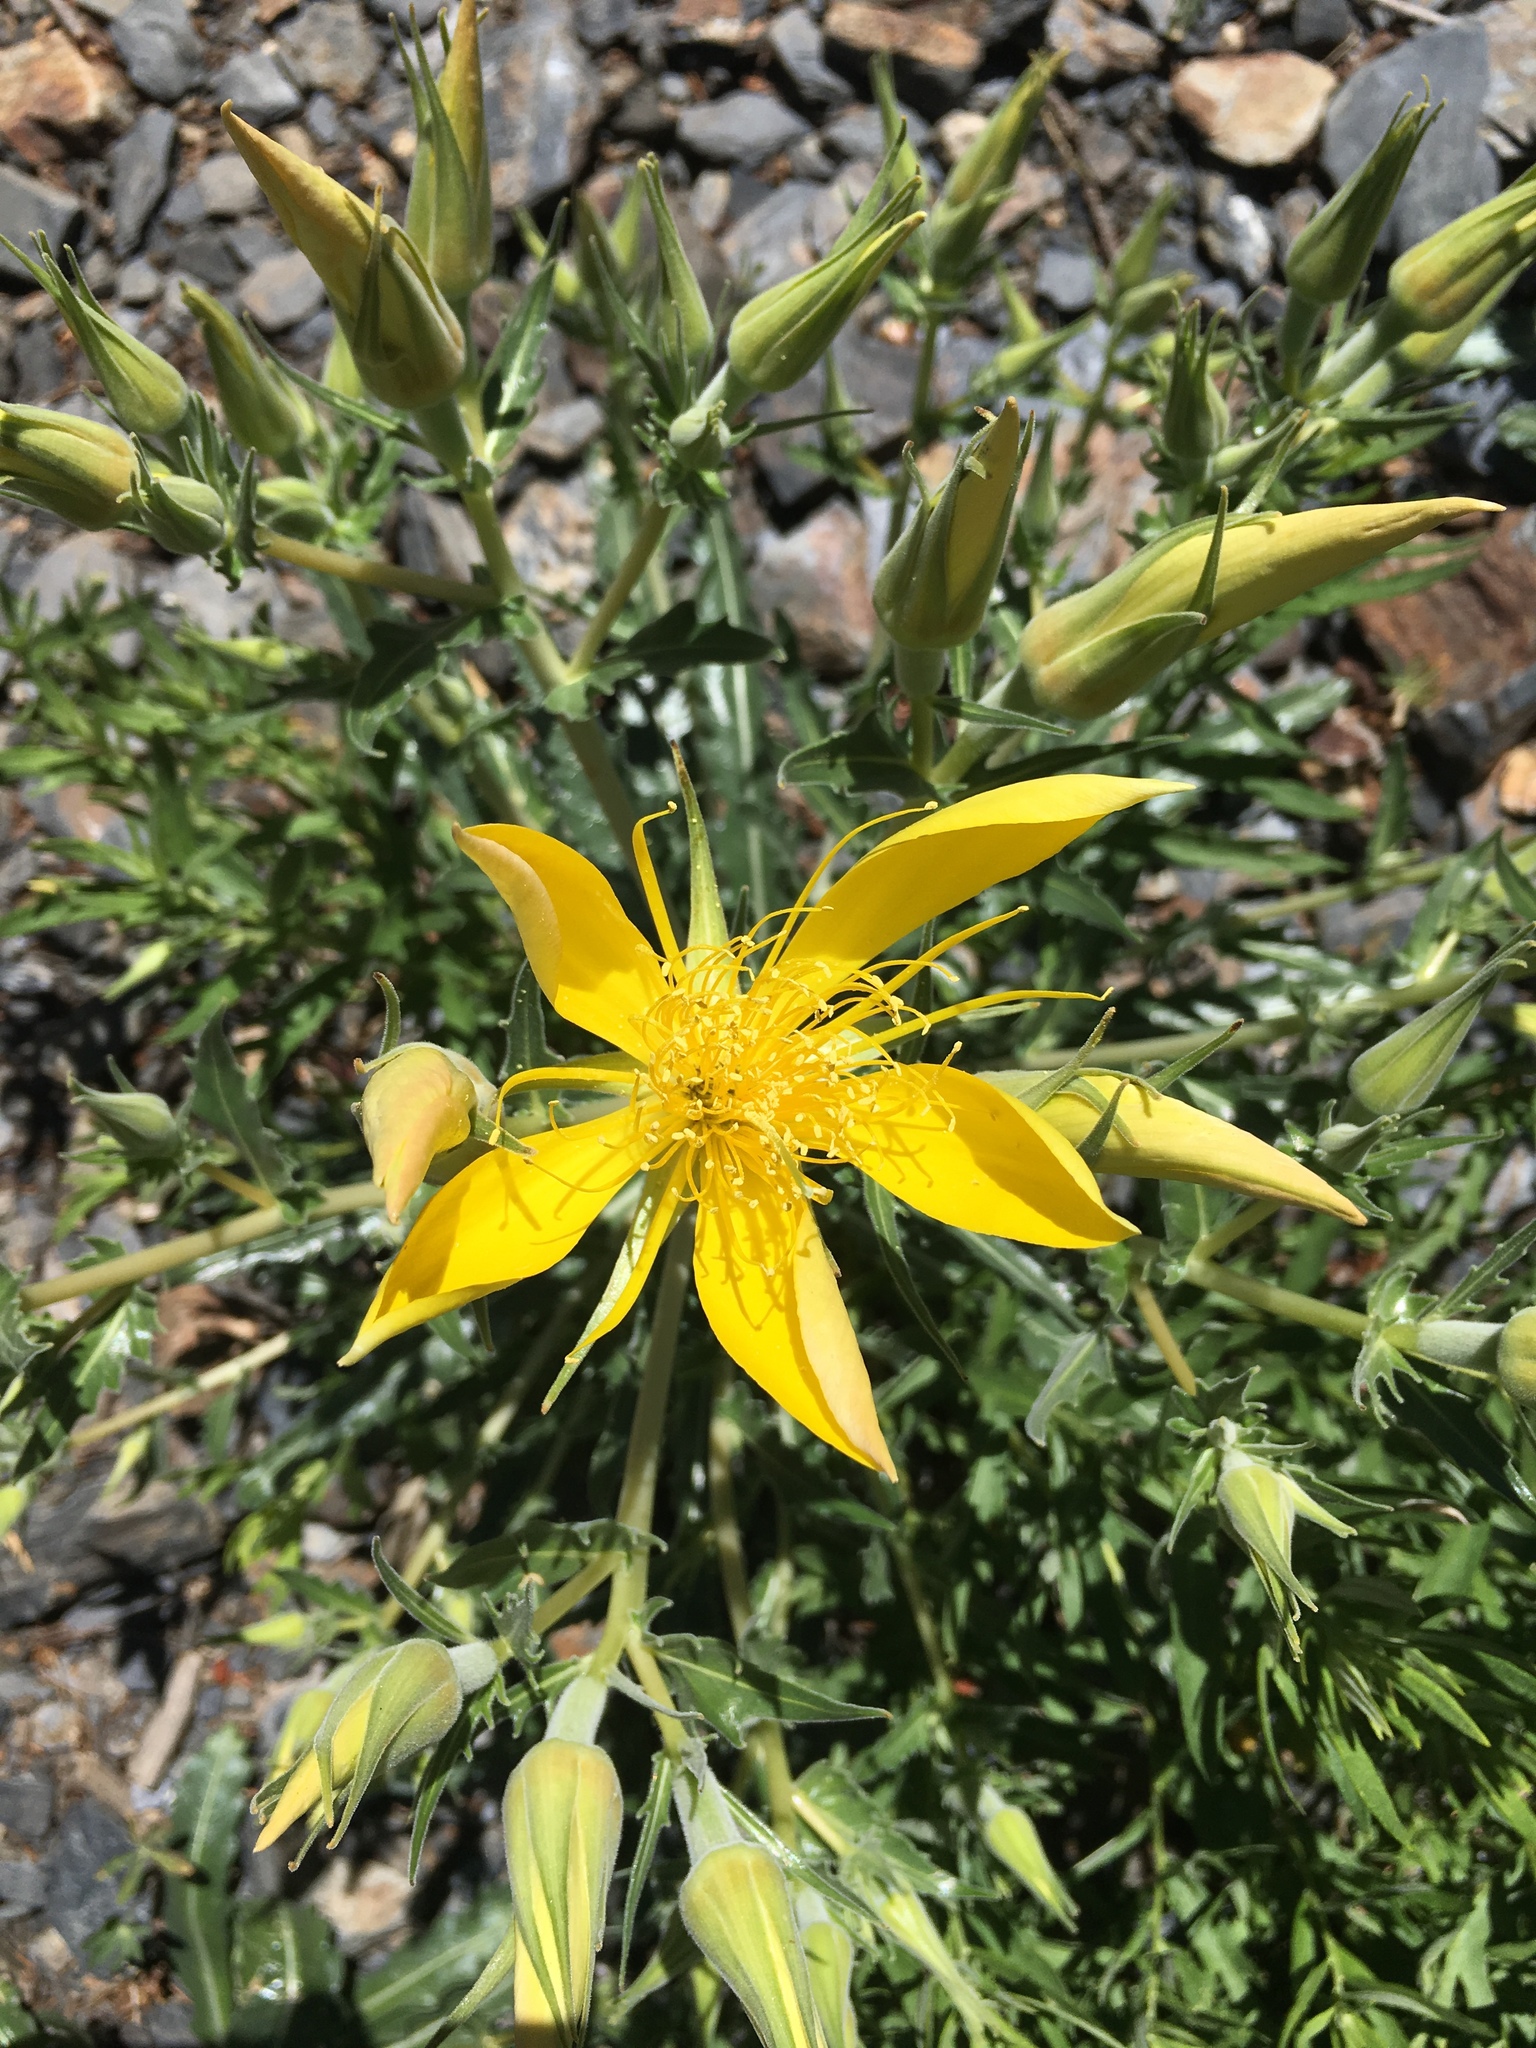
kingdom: Plantae
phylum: Tracheophyta
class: Magnoliopsida
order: Cornales
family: Loasaceae
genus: Mentzelia
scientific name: Mentzelia laevicaulis
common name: Smooth-stem blazingstar
